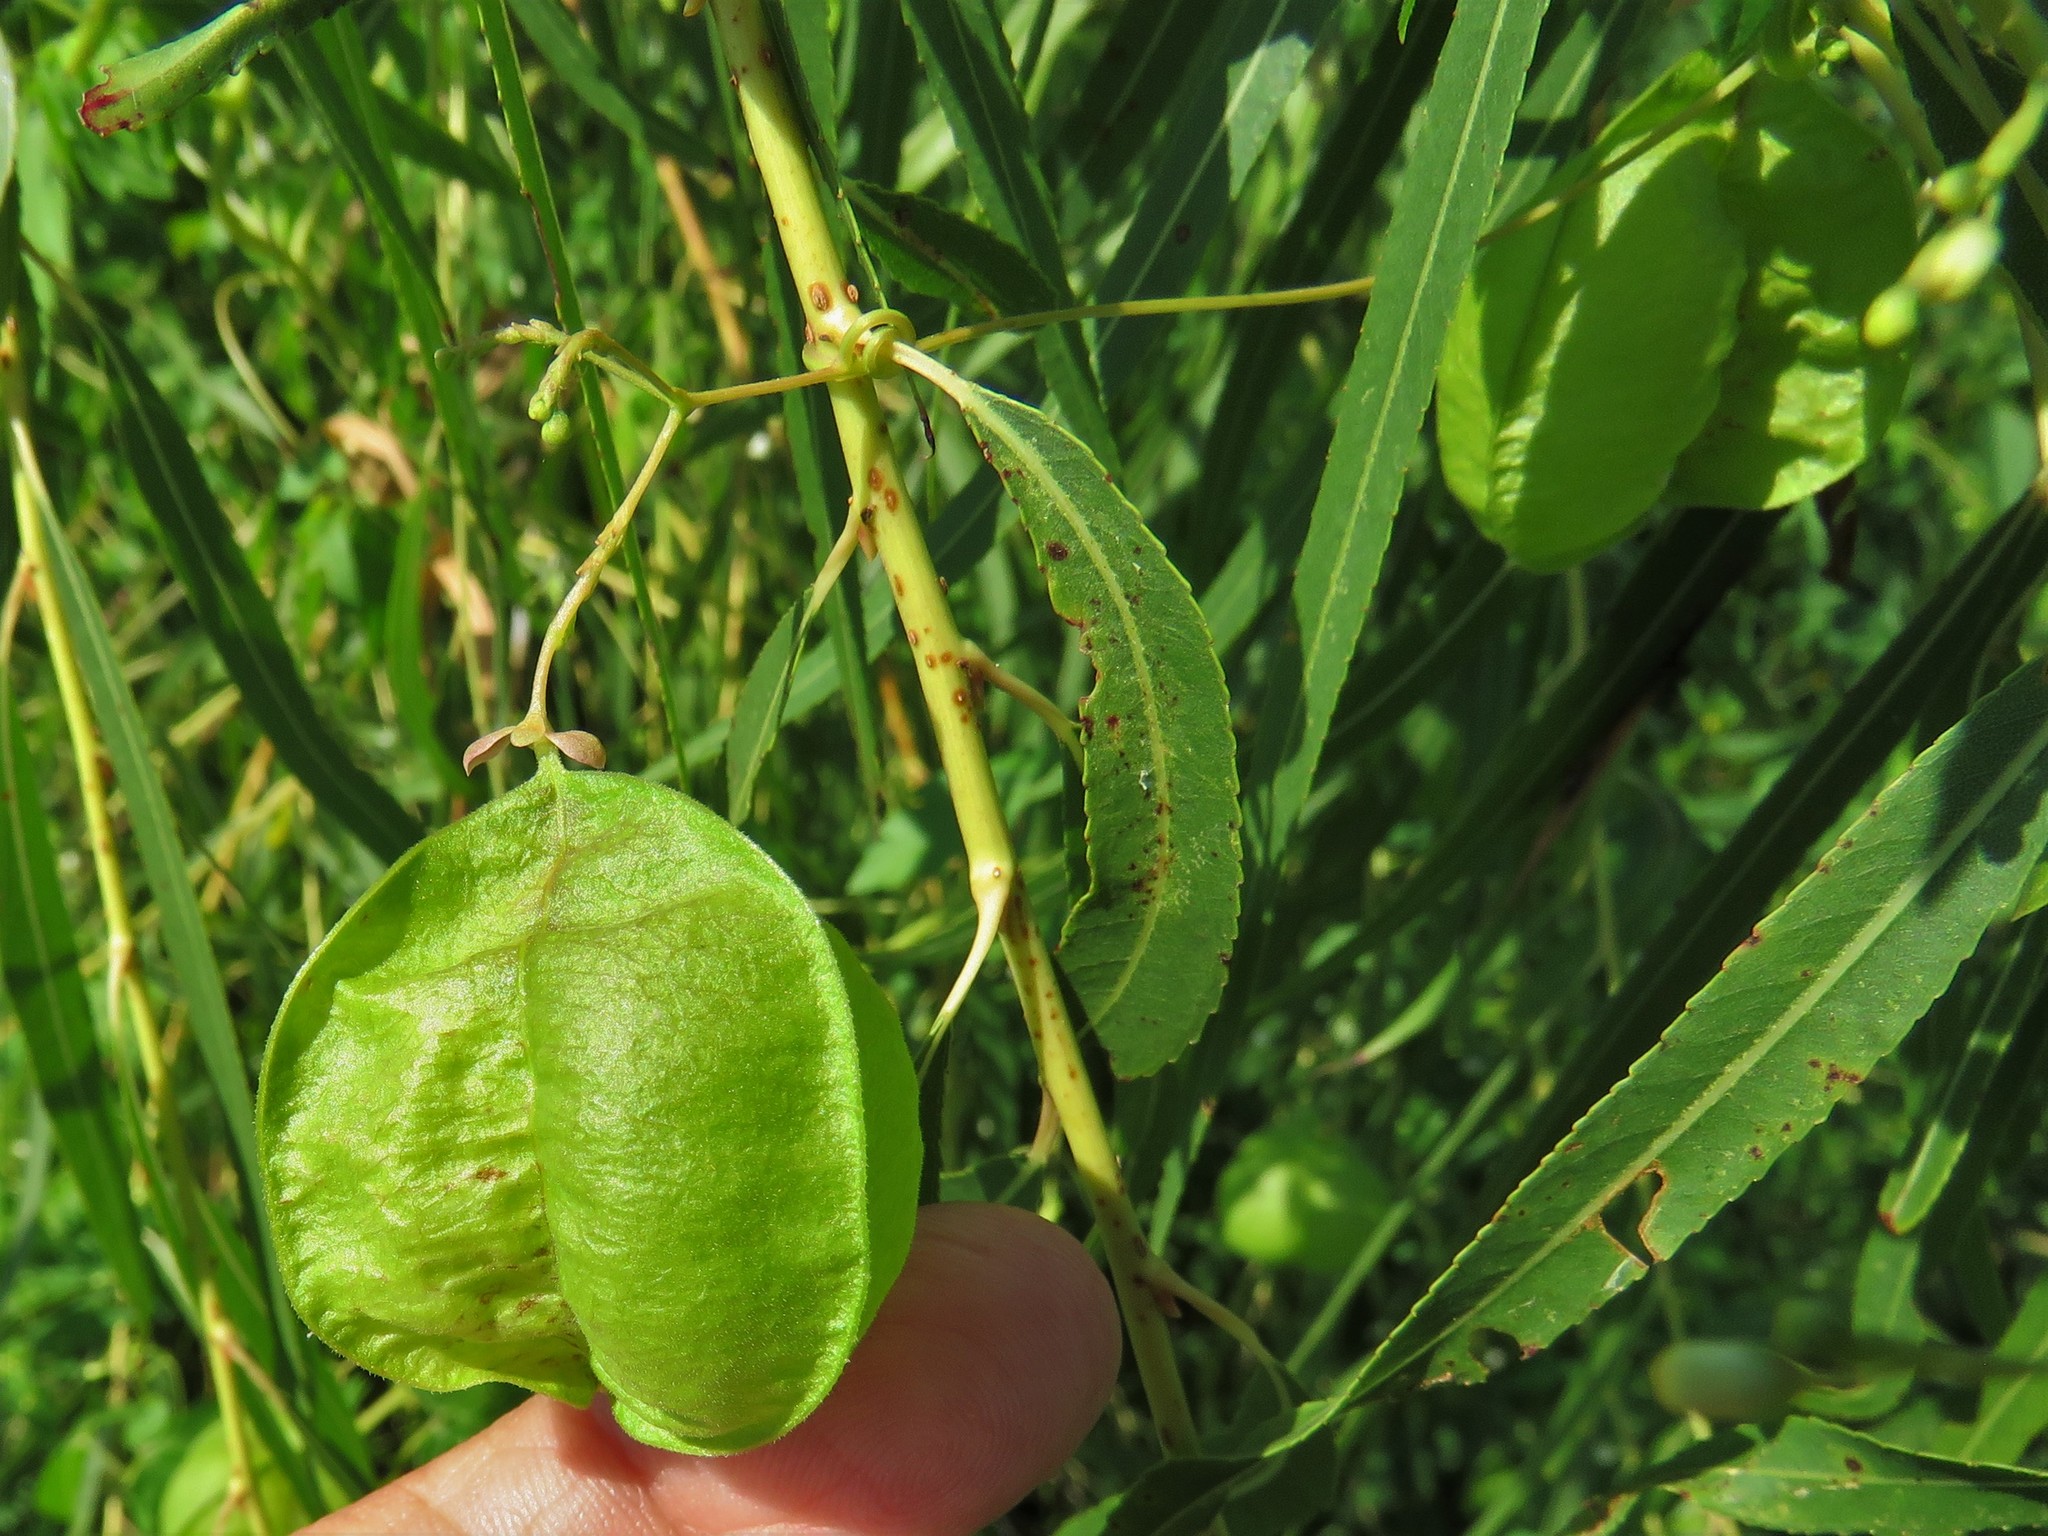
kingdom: Plantae
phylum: Tracheophyta
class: Magnoliopsida
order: Sapindales
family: Sapindaceae
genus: Cardiospermum
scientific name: Cardiospermum halicacabum
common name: Balloon vine
